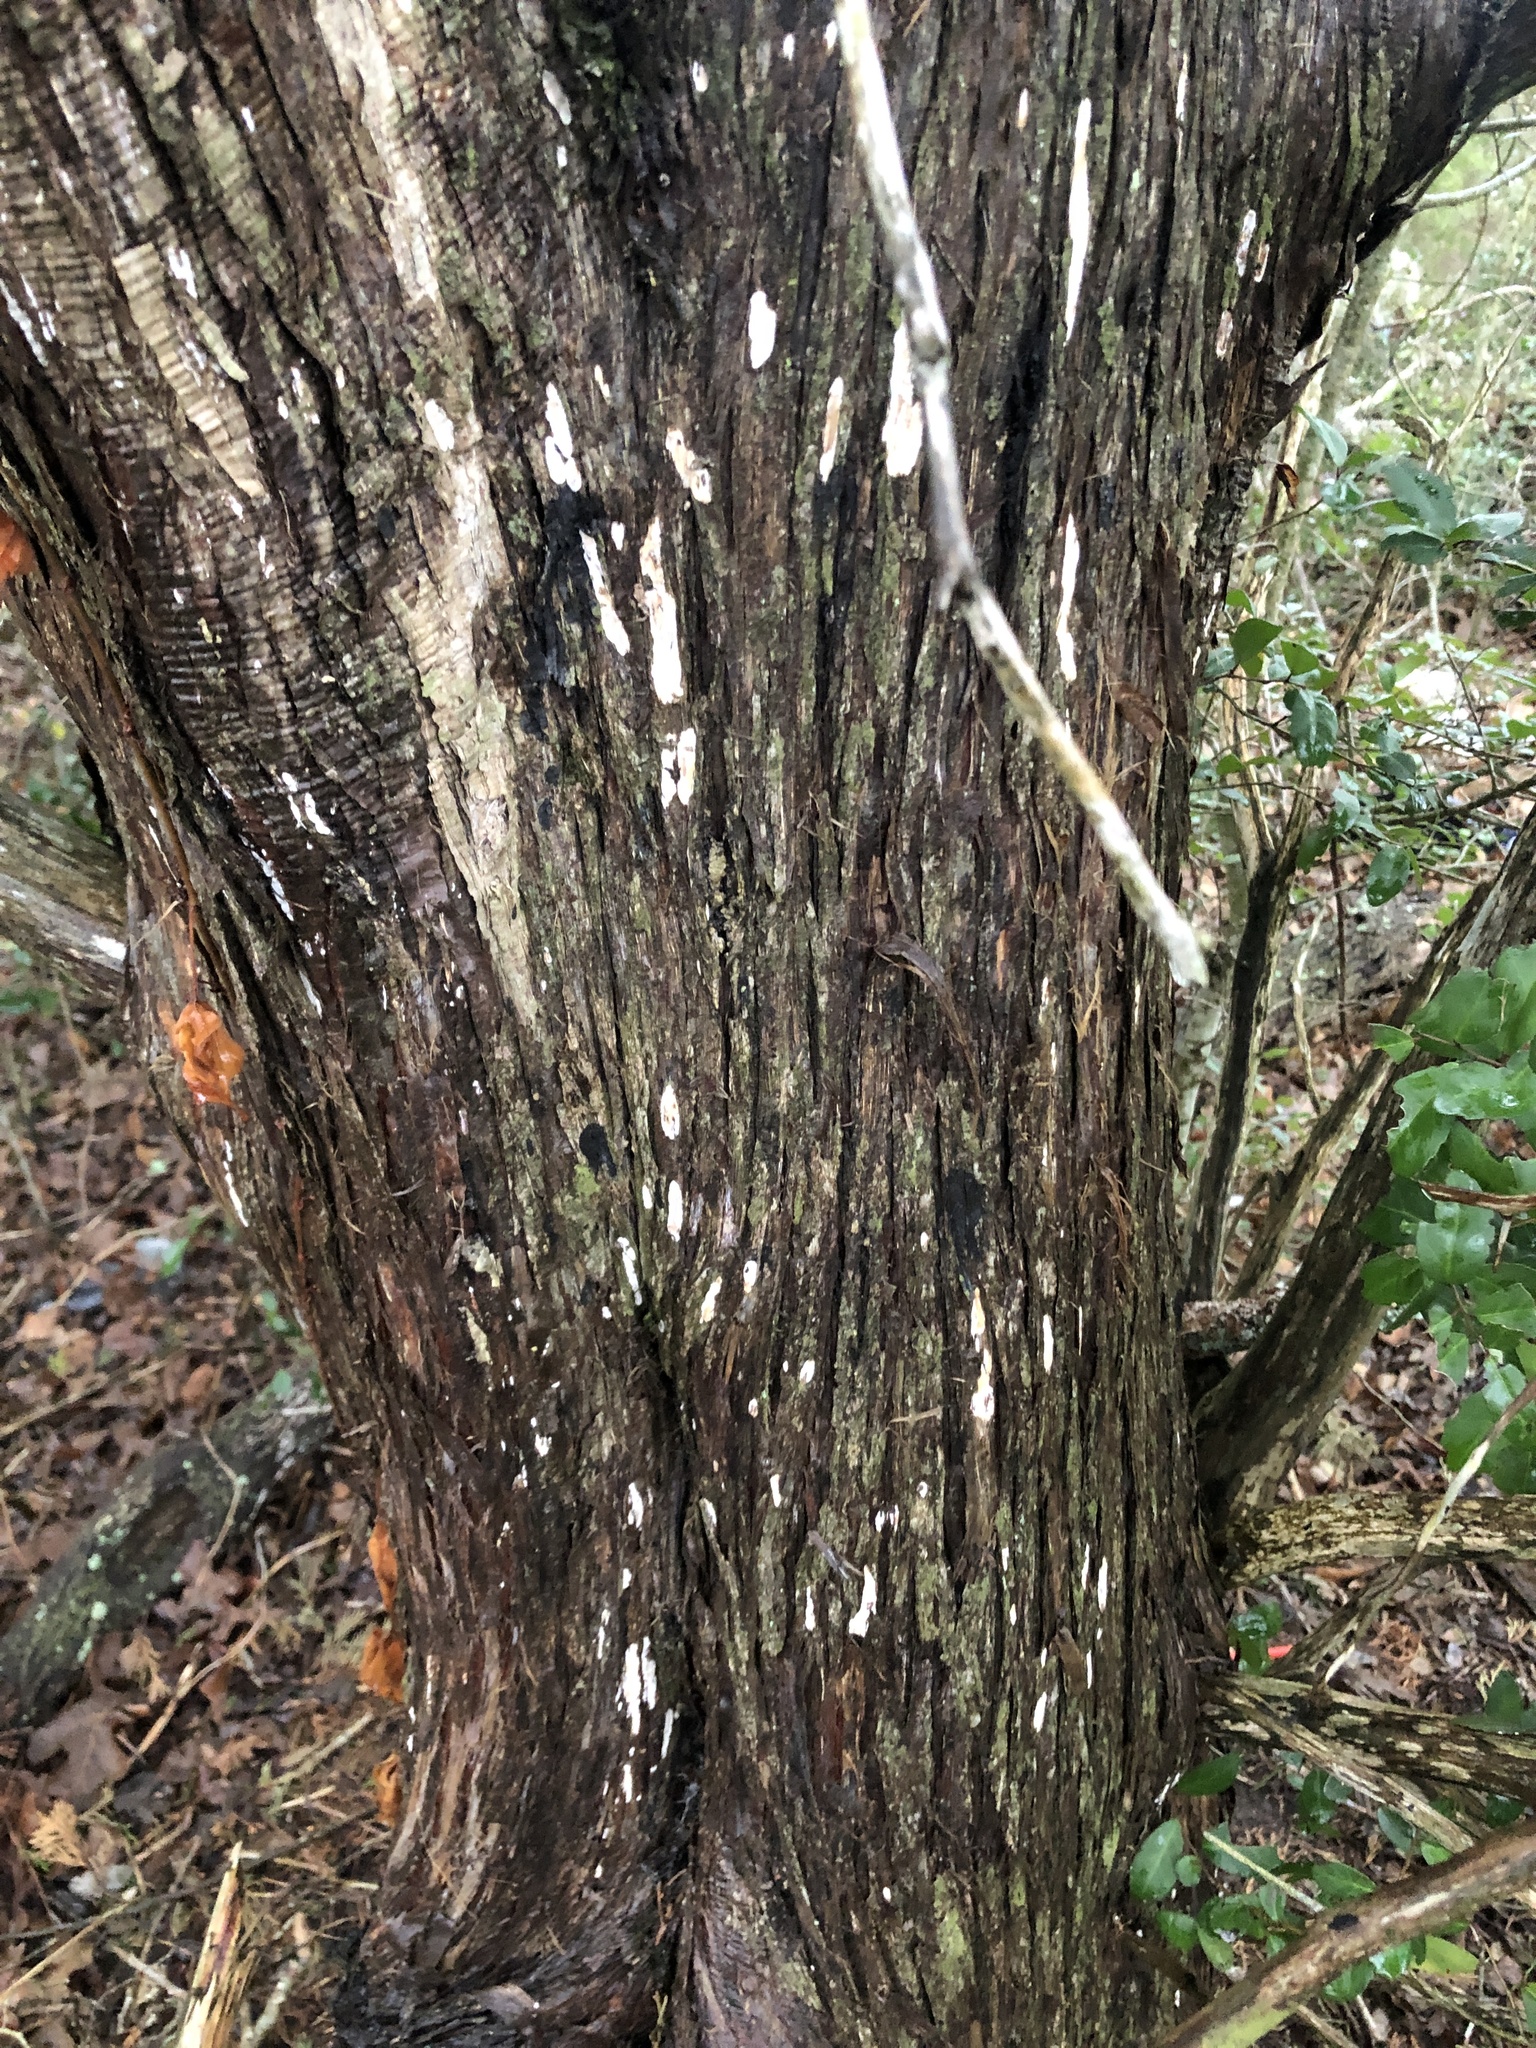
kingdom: Fungi
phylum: Basidiomycota
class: Agaricomycetes
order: Agaricales
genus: Dendrothele
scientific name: Dendrothele nivosa
